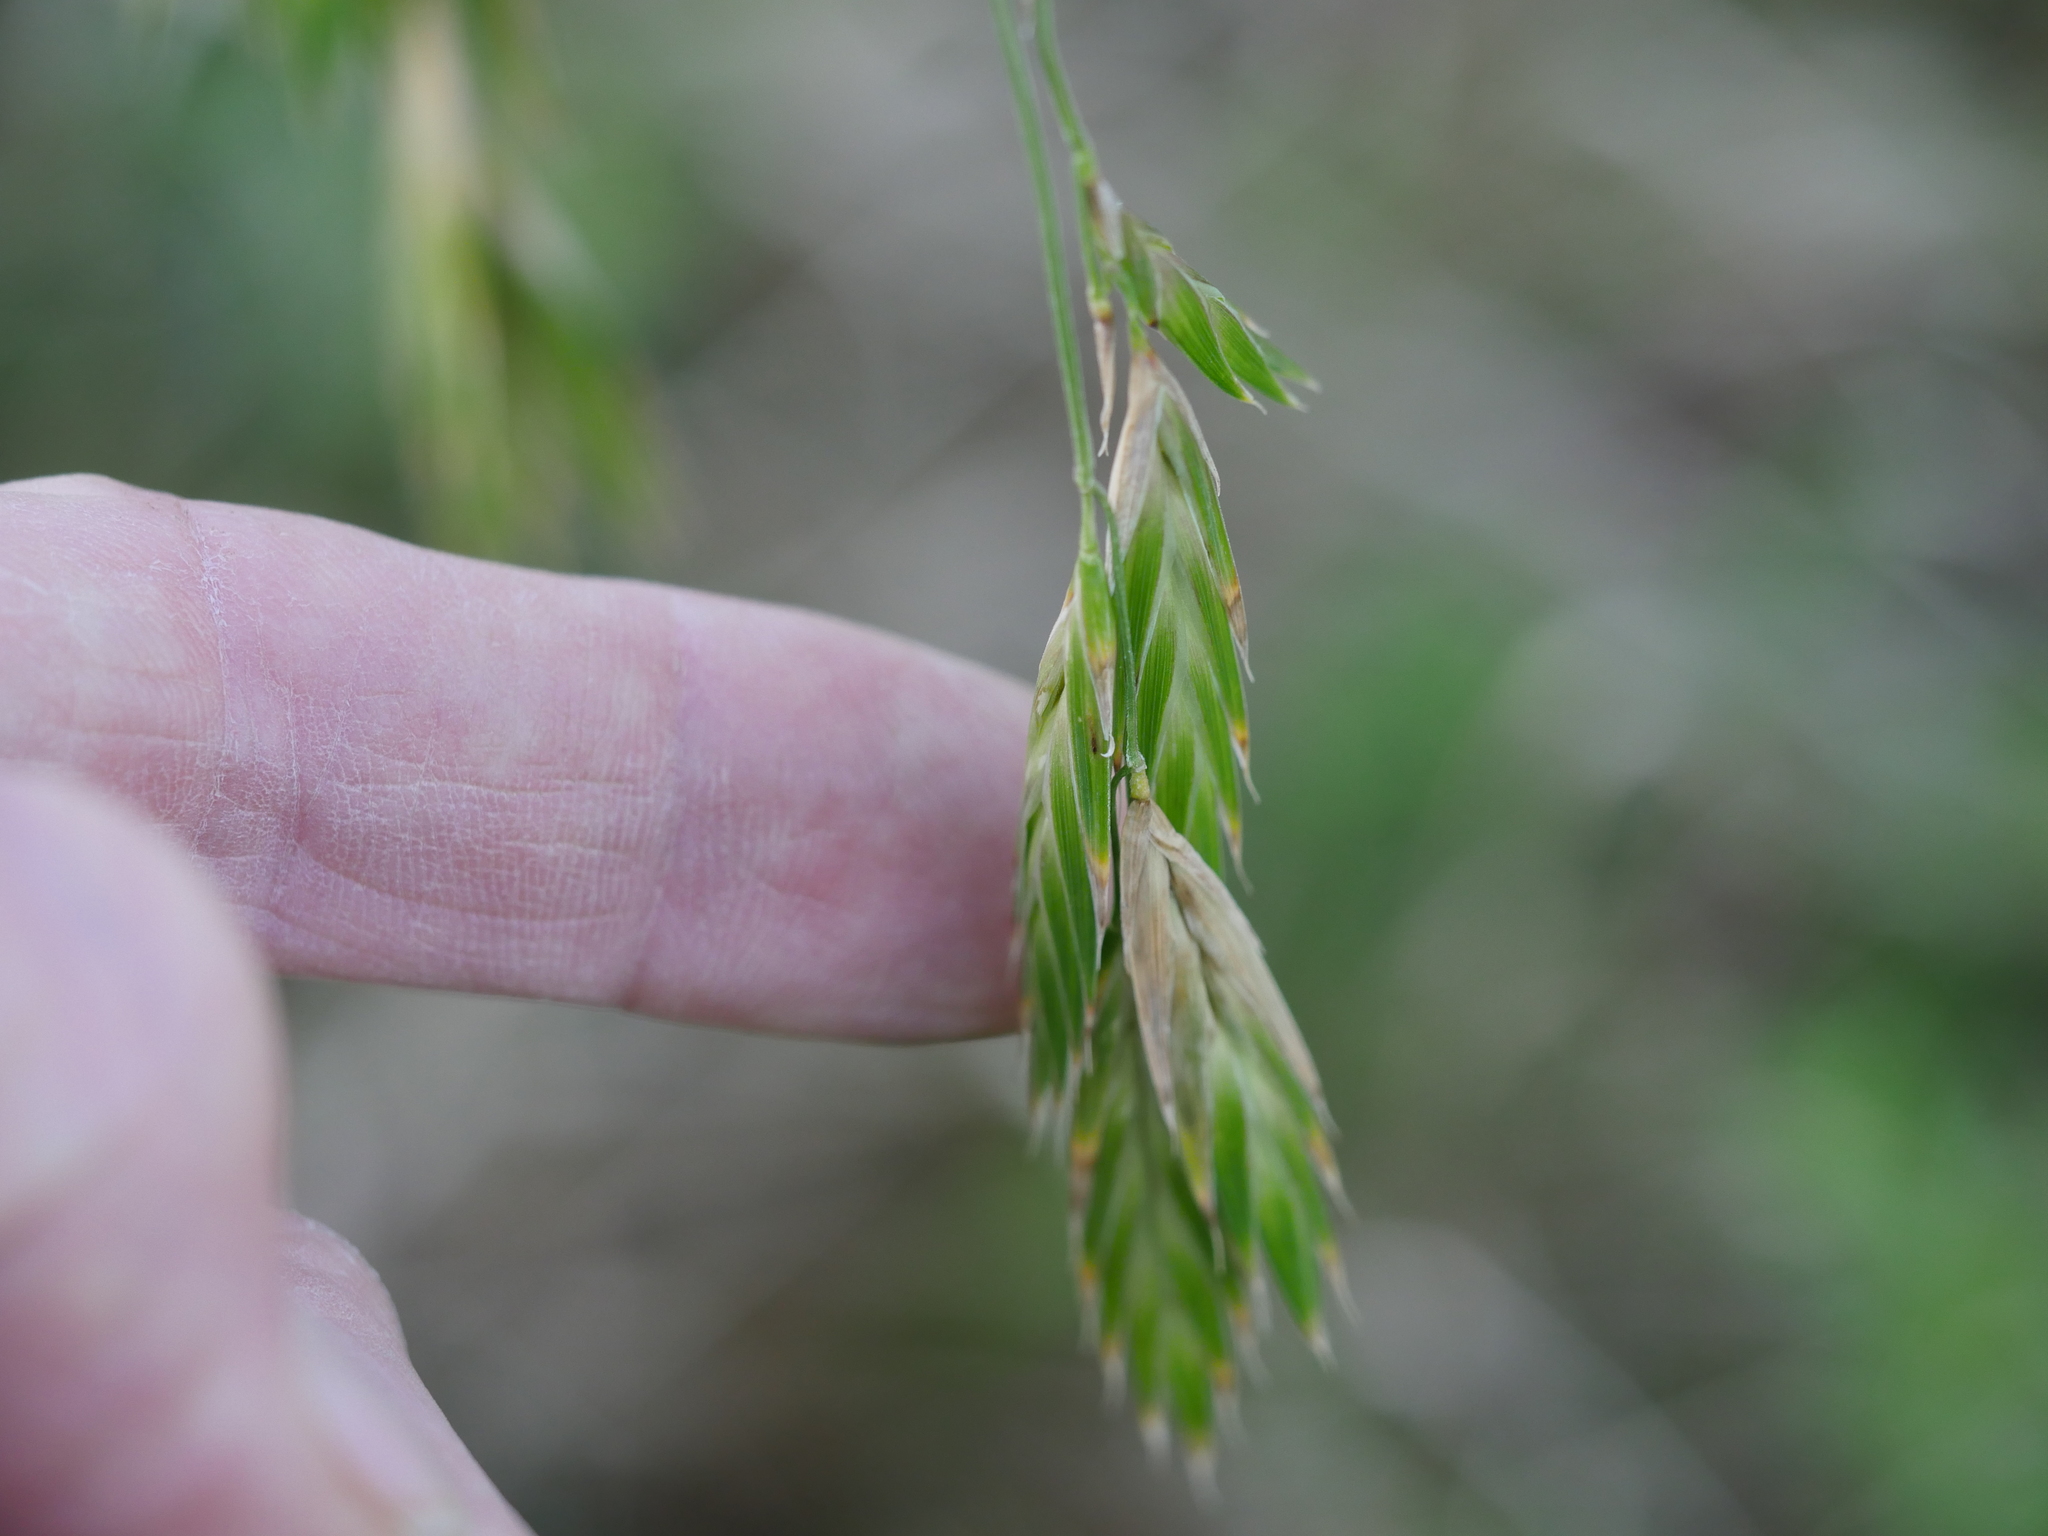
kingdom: Plantae
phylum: Tracheophyta
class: Liliopsida
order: Poales
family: Poaceae
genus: Bromus
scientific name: Bromus catharticus
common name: Rescuegrass
